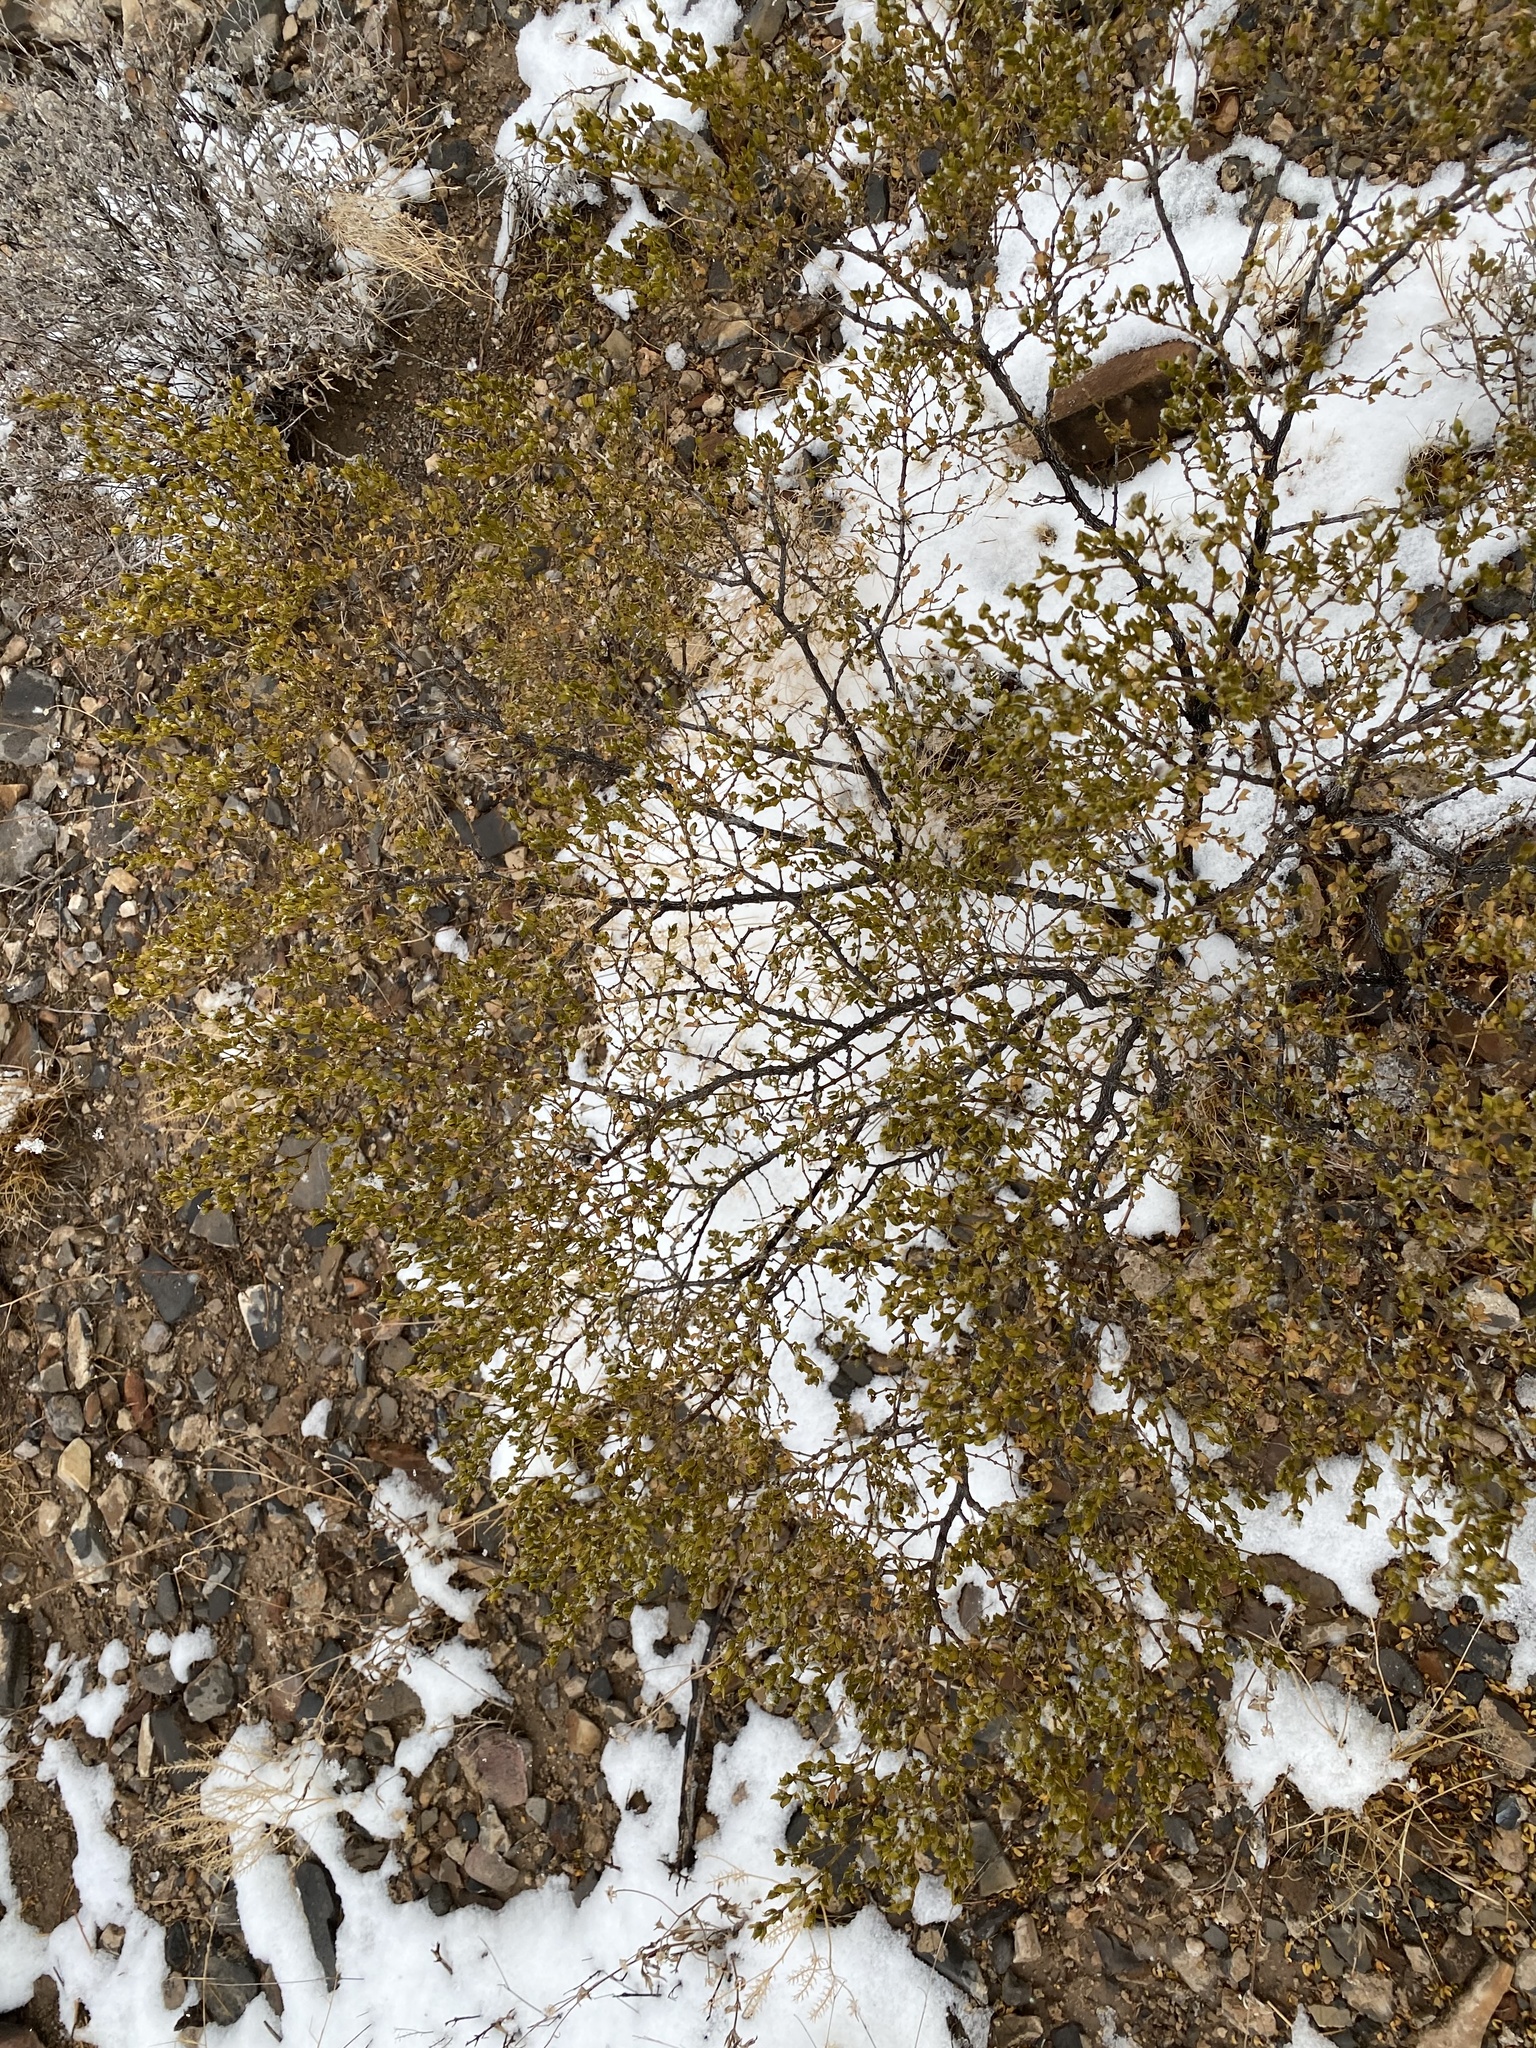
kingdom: Plantae
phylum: Tracheophyta
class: Magnoliopsida
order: Zygophyllales
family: Zygophyllaceae
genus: Larrea
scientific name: Larrea tridentata
